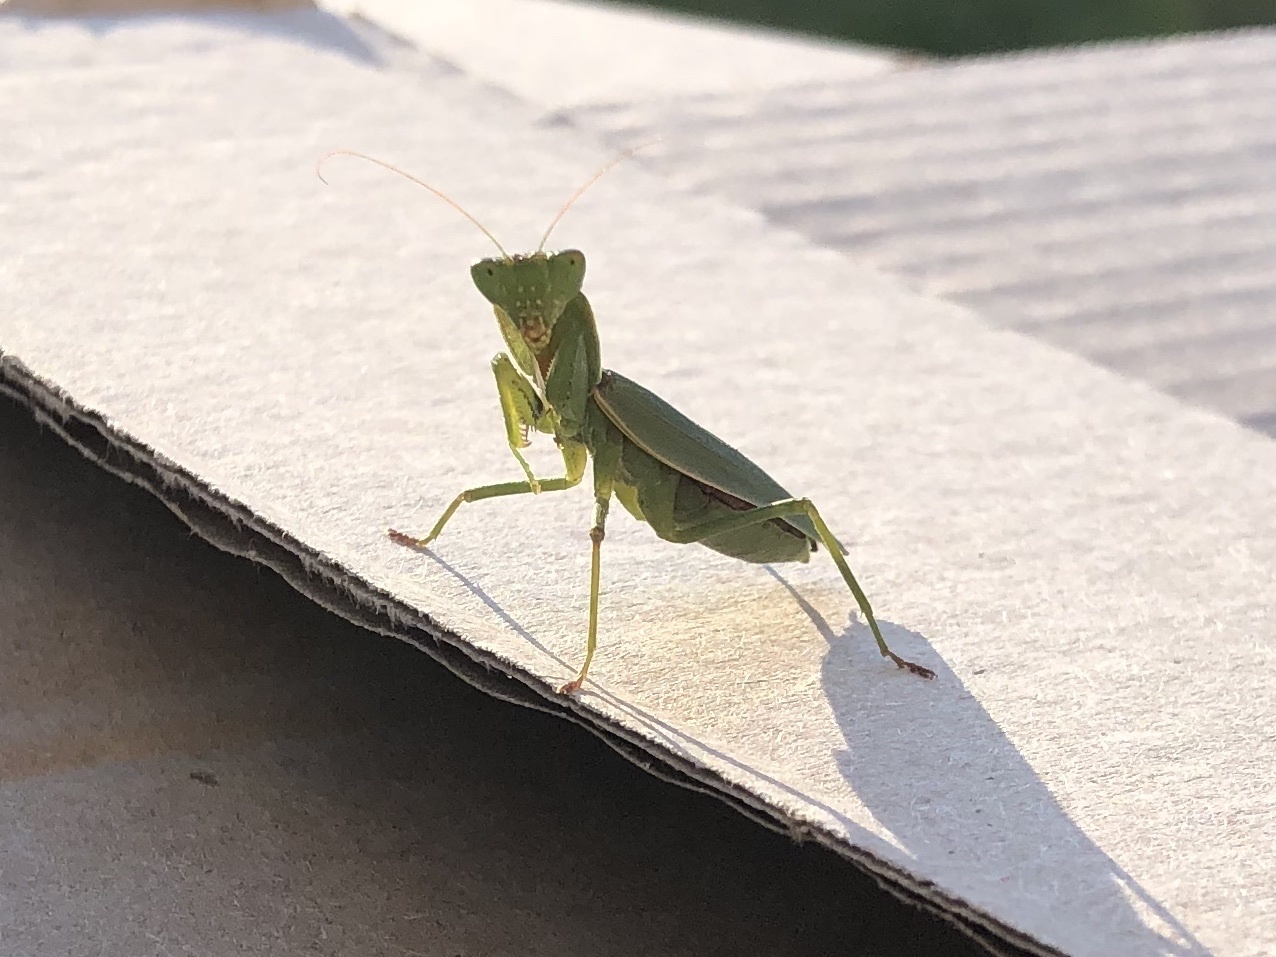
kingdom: Animalia
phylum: Arthropoda
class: Insecta
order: Mantodea
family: Mantidae
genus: Orthodera
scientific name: Orthodera novaezealandiae
